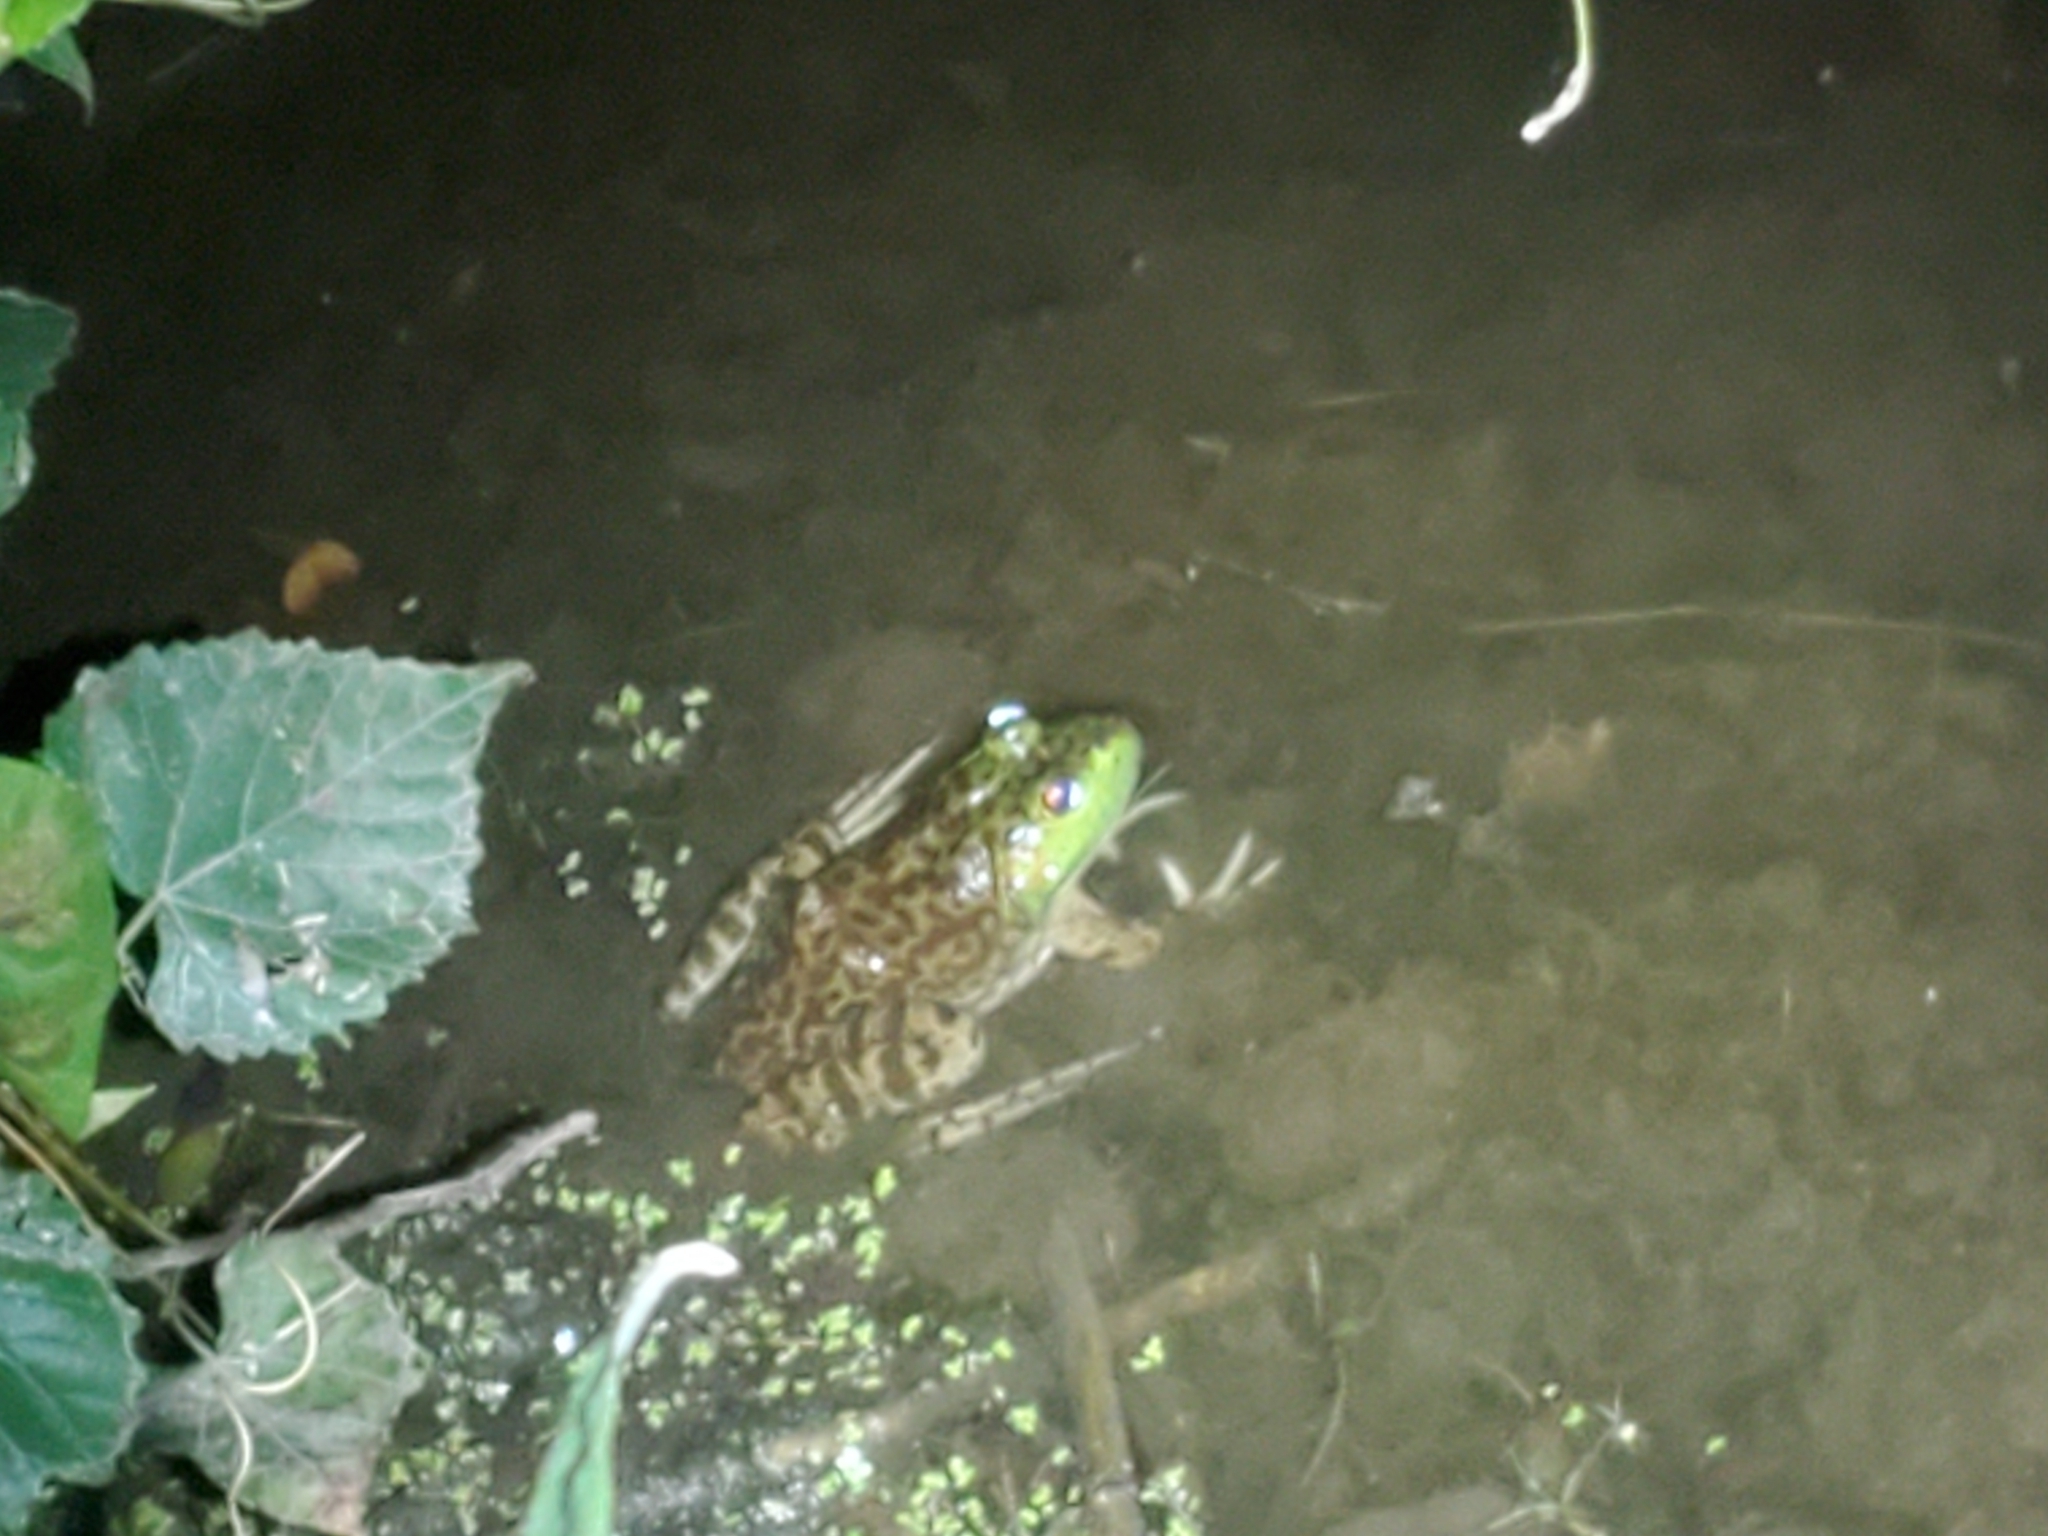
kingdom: Animalia
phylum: Chordata
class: Amphibia
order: Anura
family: Ranidae
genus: Lithobates
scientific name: Lithobates catesbeianus
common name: American bullfrog
